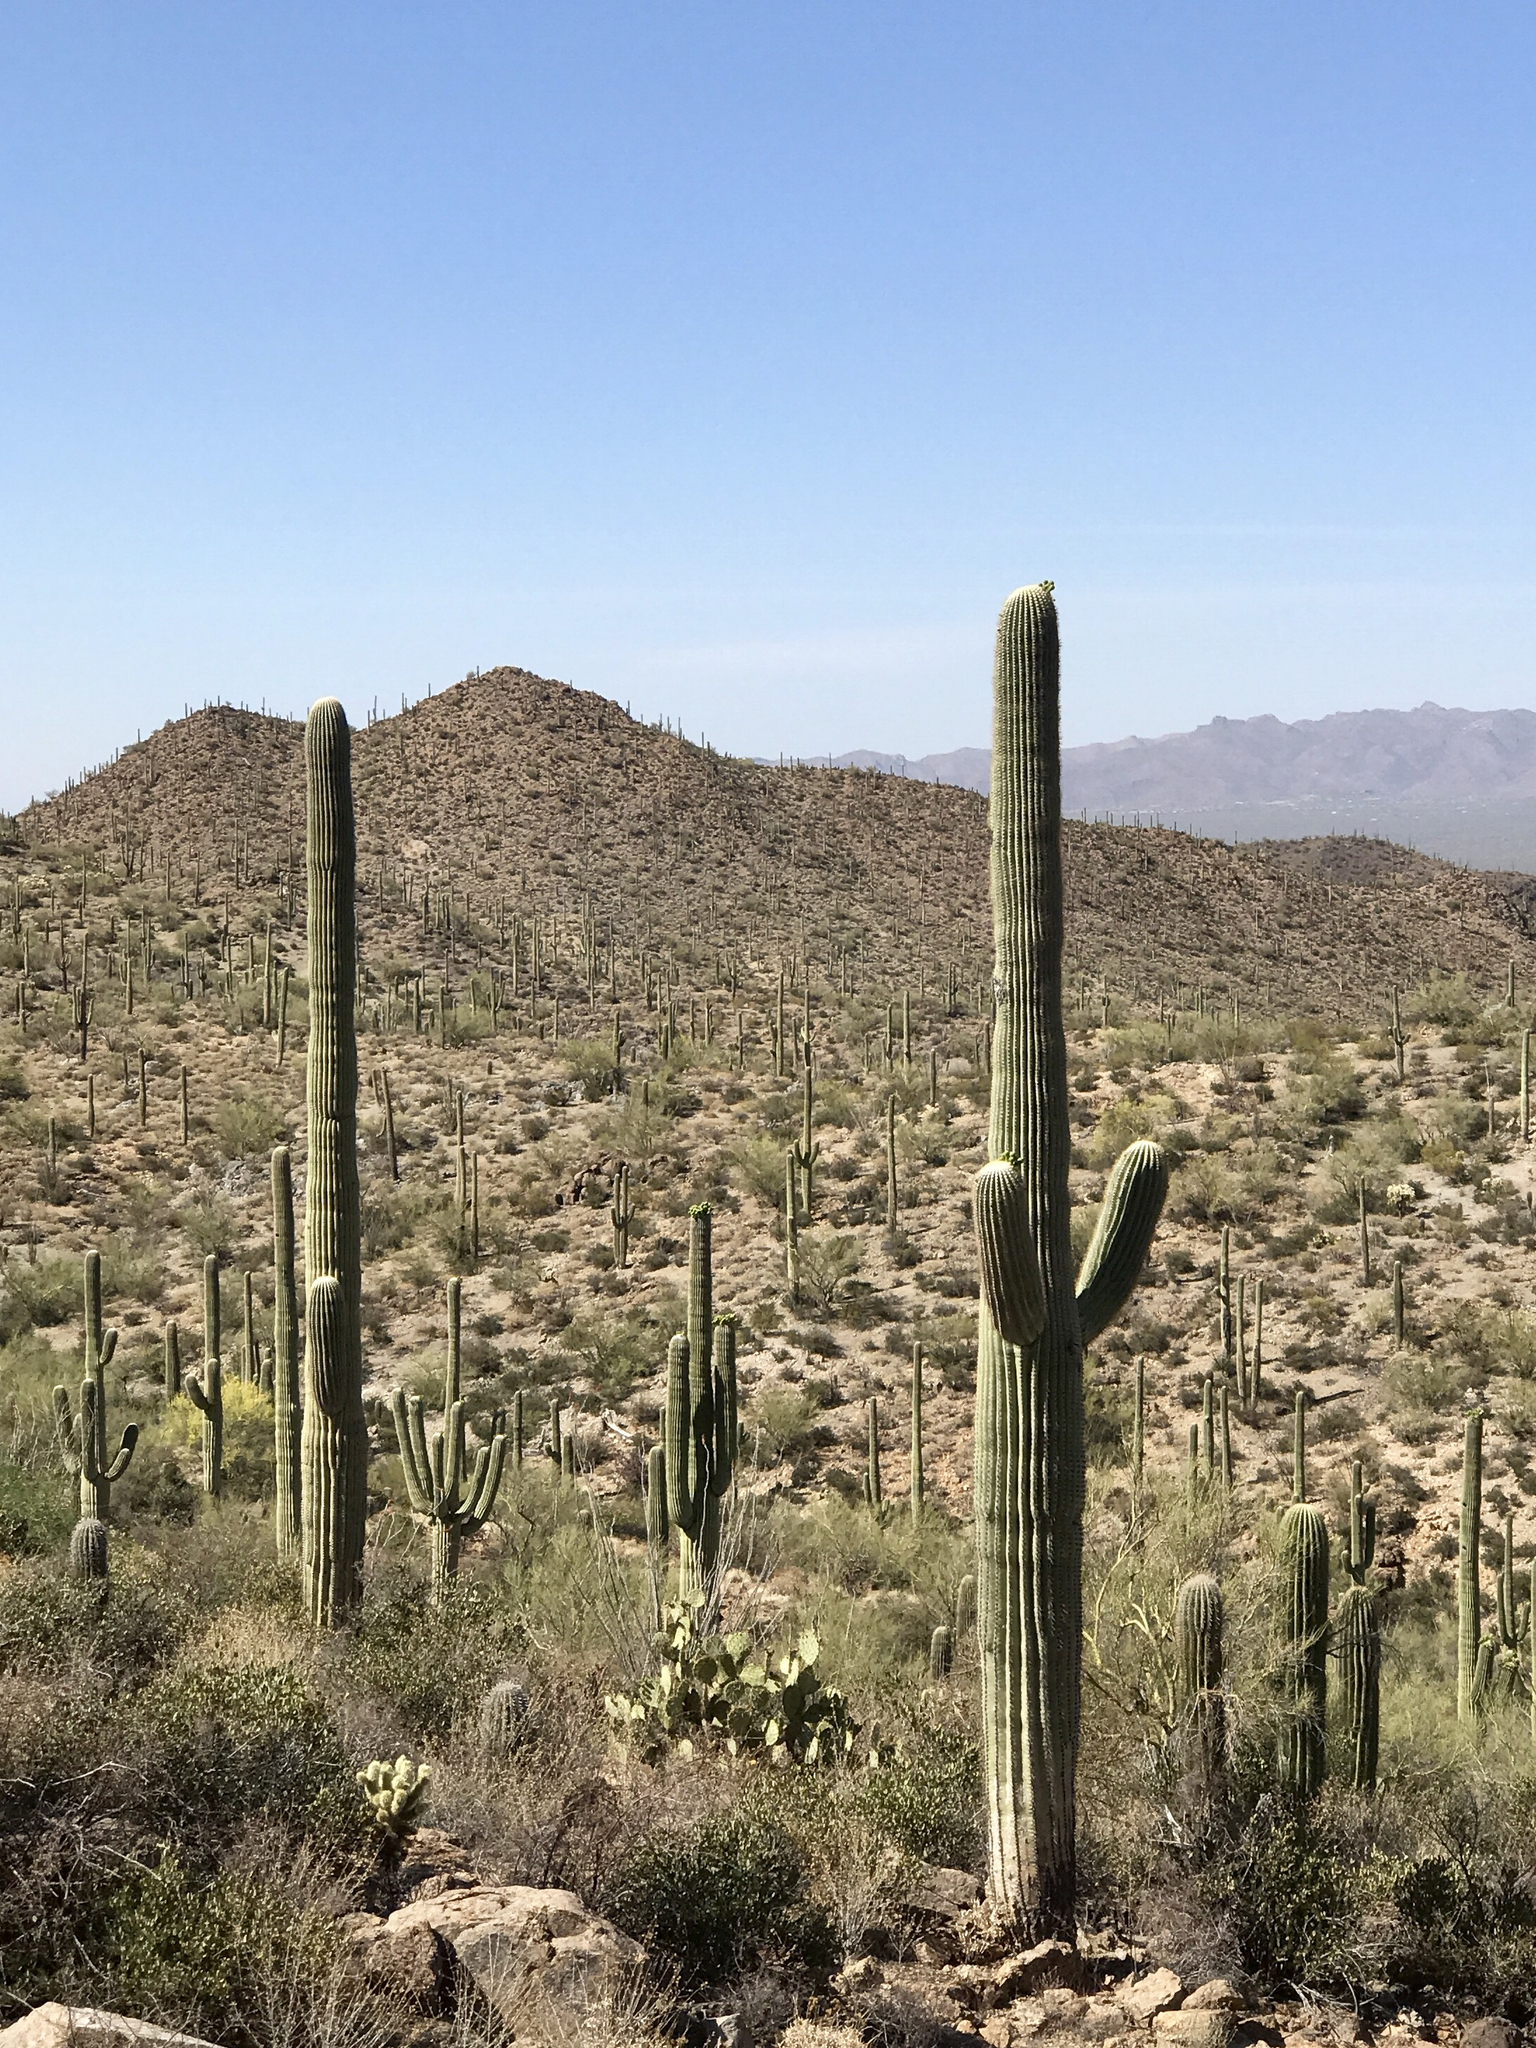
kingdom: Plantae
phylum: Tracheophyta
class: Magnoliopsida
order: Caryophyllales
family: Cactaceae
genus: Carnegiea
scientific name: Carnegiea gigantea
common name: Saguaro
